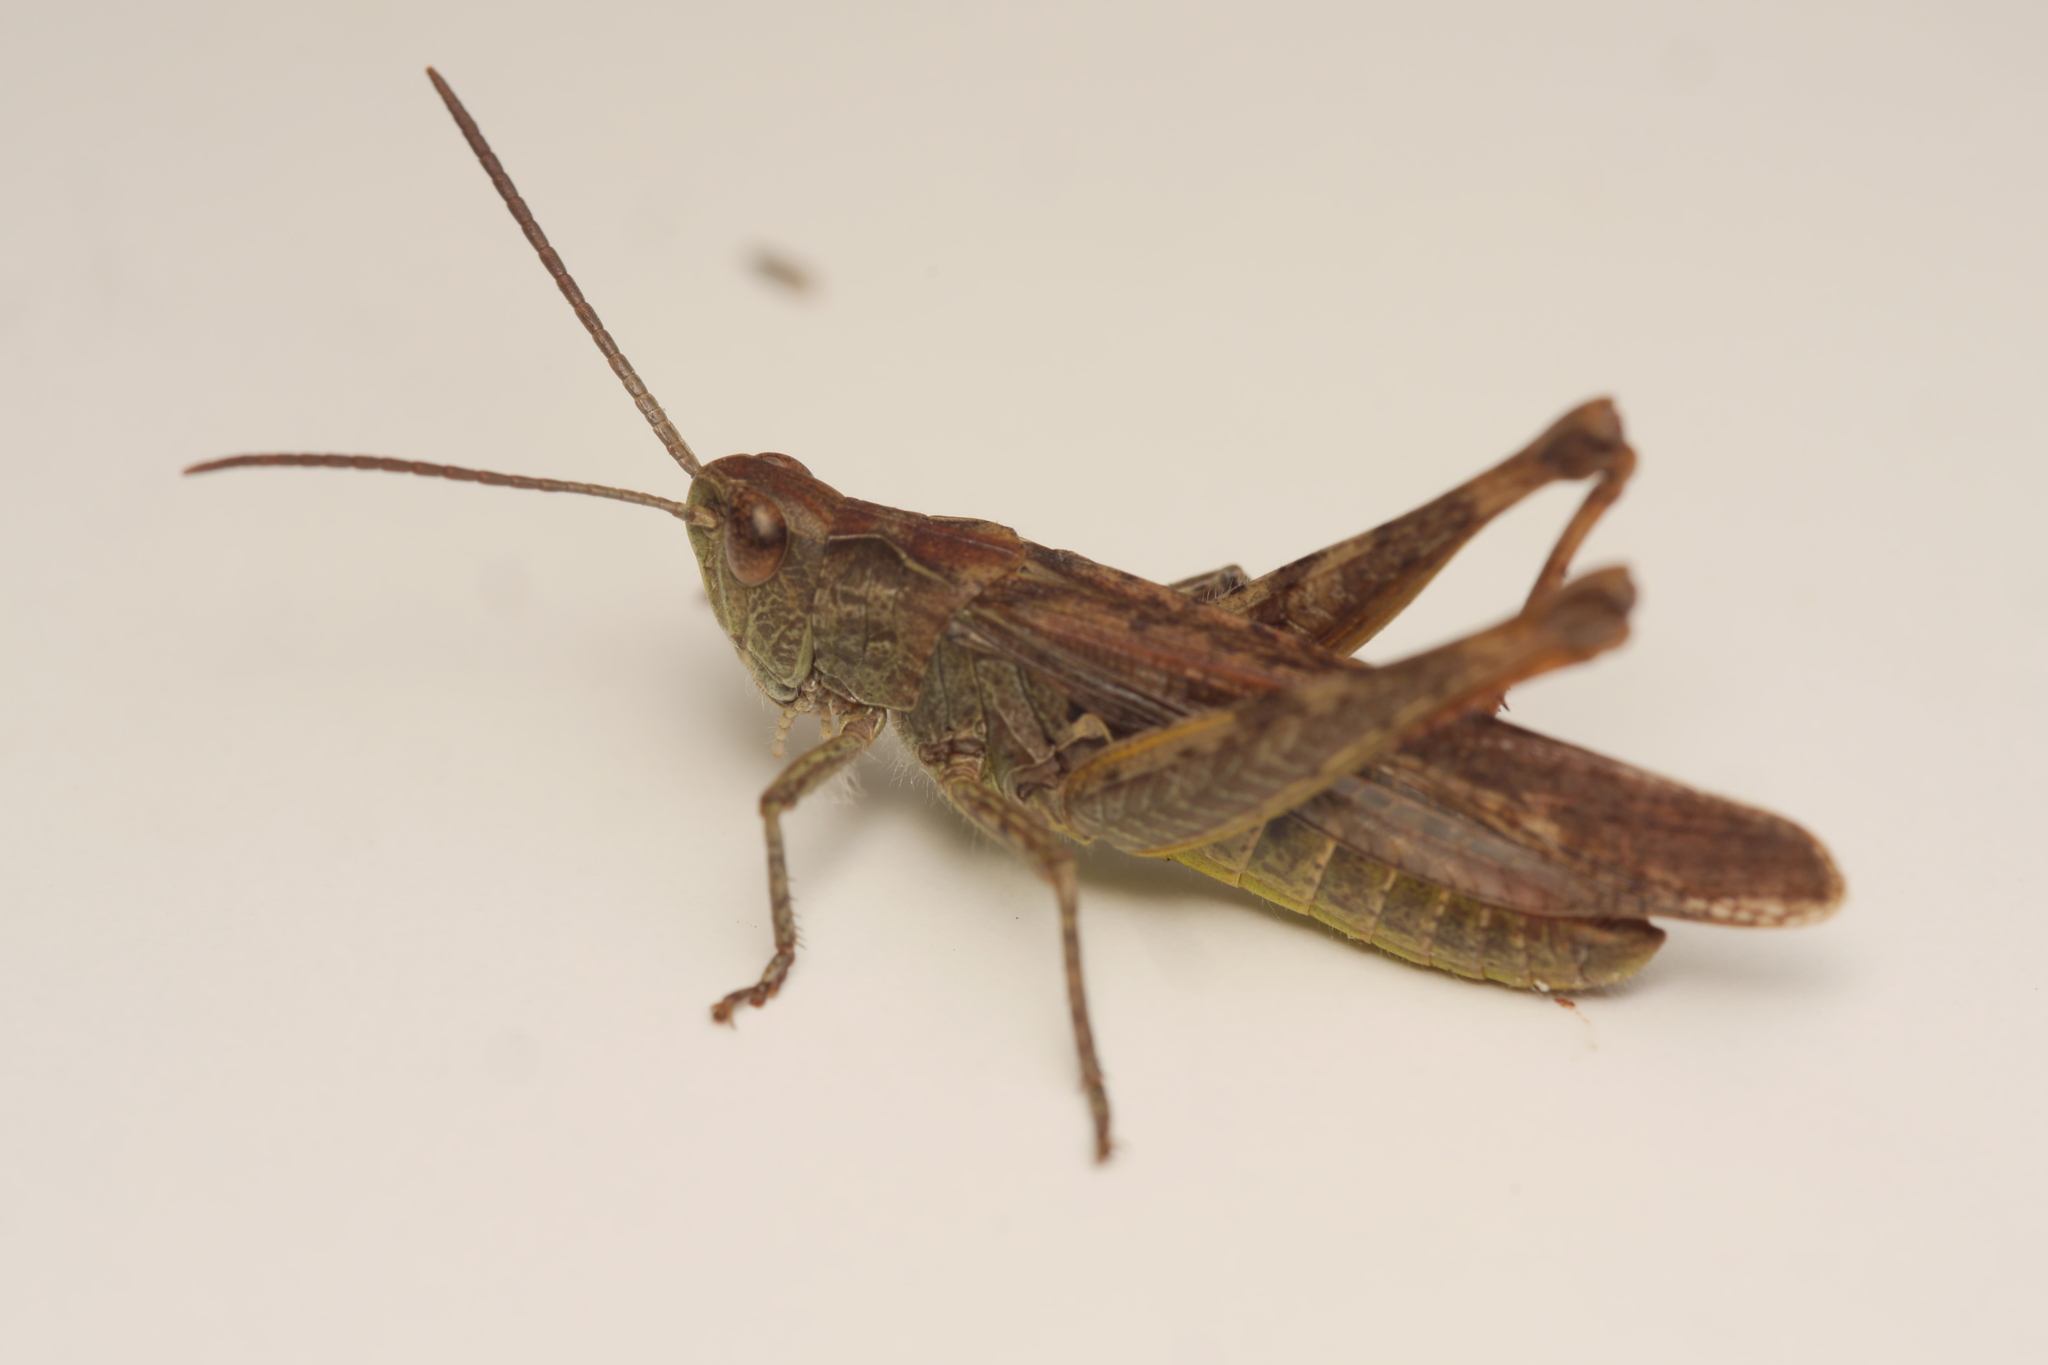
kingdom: Animalia
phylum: Arthropoda
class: Insecta
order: Orthoptera
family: Acrididae
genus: Chorthippus
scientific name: Chorthippus biguttulus
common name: Bow-winged grasshopper
